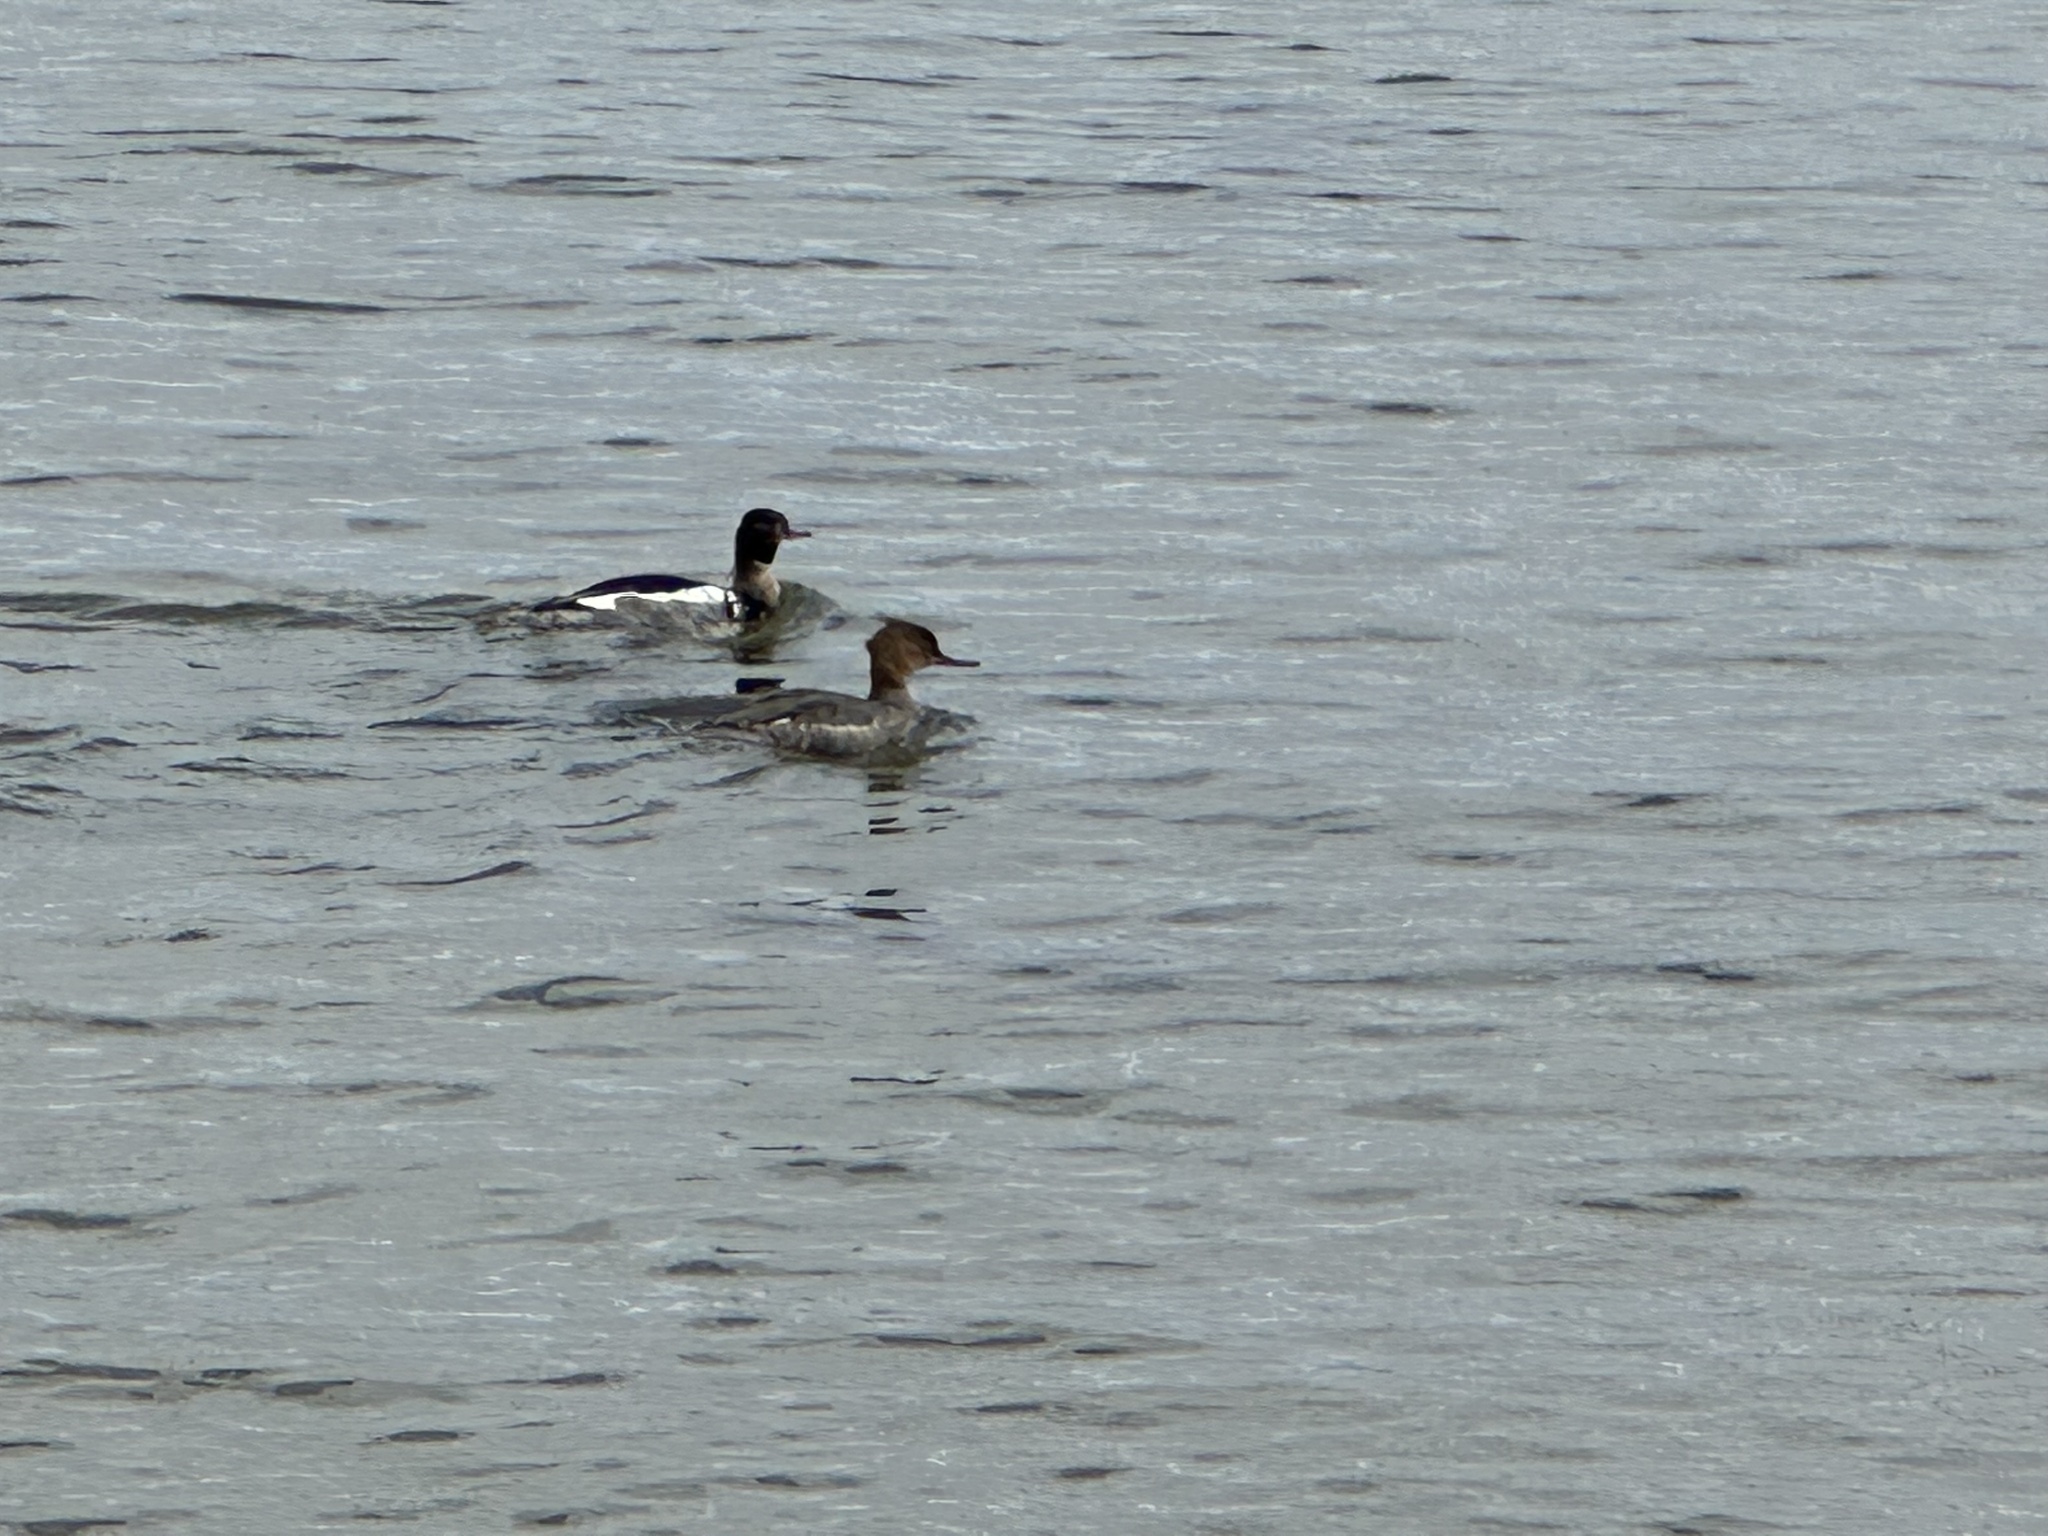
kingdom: Animalia
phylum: Chordata
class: Aves
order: Anseriformes
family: Anatidae
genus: Mergus
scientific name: Mergus serrator
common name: Red-breasted merganser
